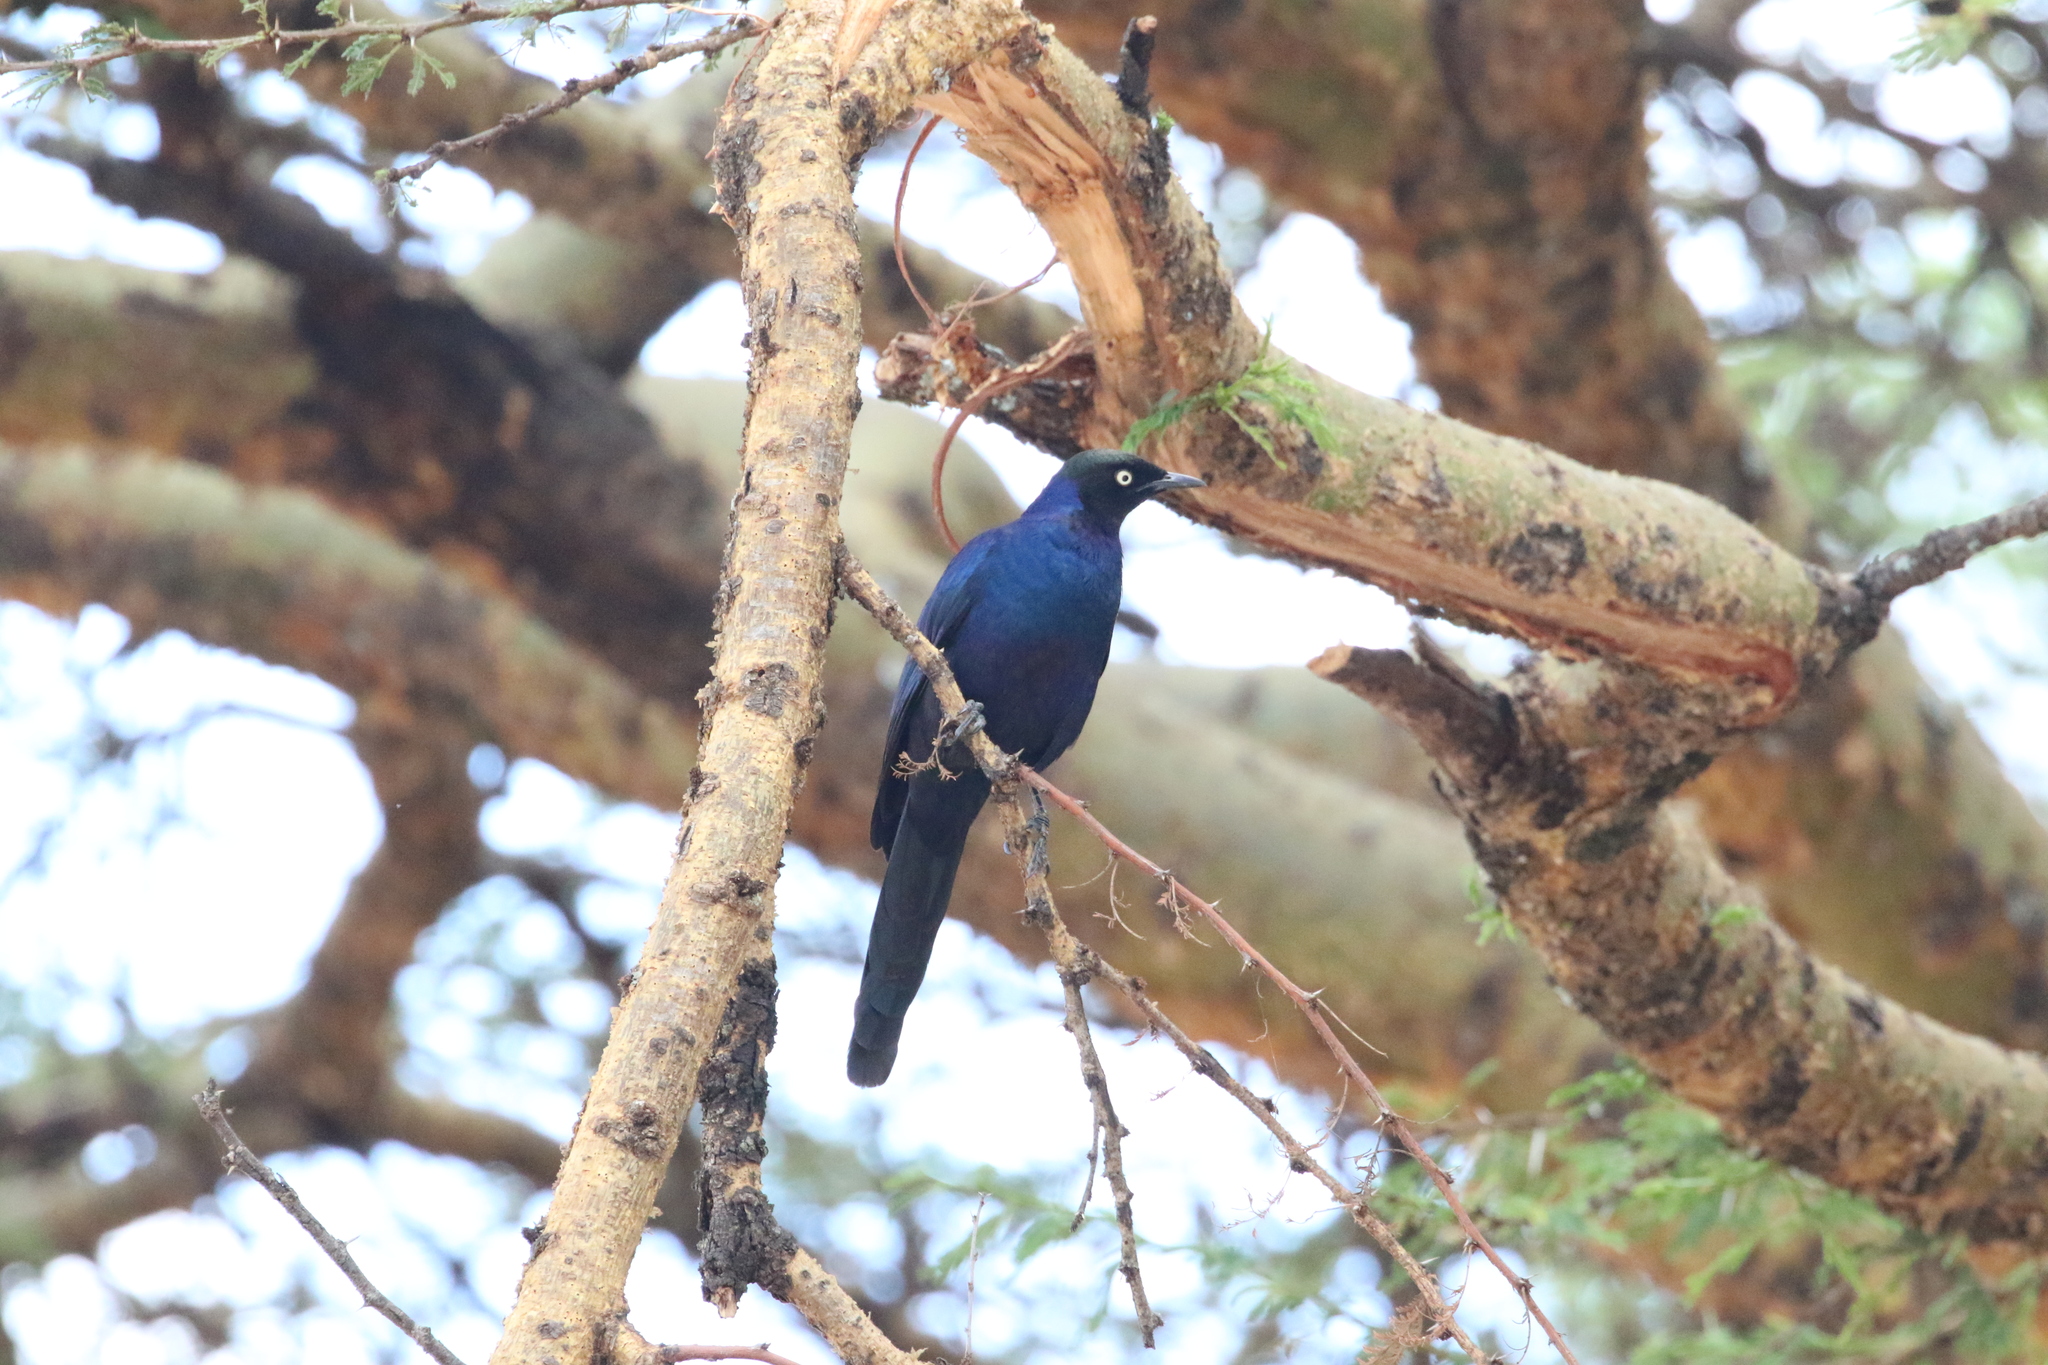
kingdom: Animalia
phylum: Chordata
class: Aves
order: Passeriformes
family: Sturnidae
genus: Lamprotornis
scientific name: Lamprotornis purpuroptera
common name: Rüppell's starling
